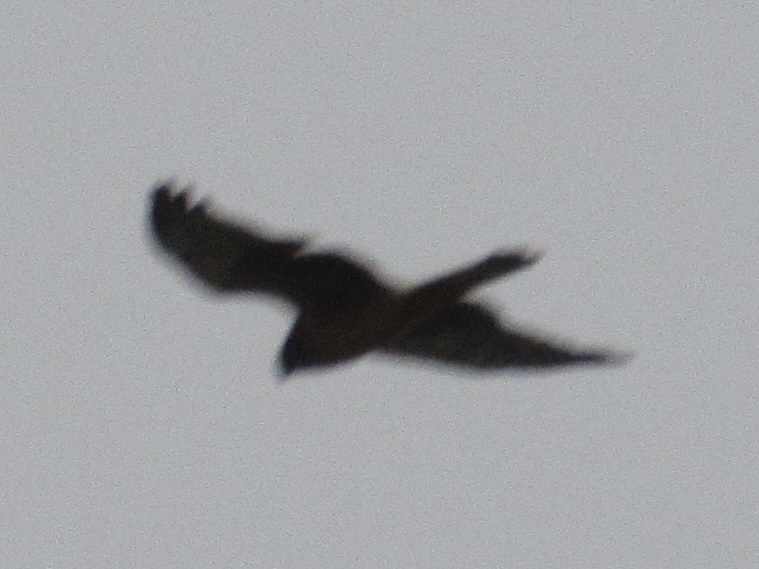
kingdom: Animalia
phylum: Chordata
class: Aves
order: Accipitriformes
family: Accipitridae
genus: Circus
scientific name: Circus cyaneus
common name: Hen harrier
